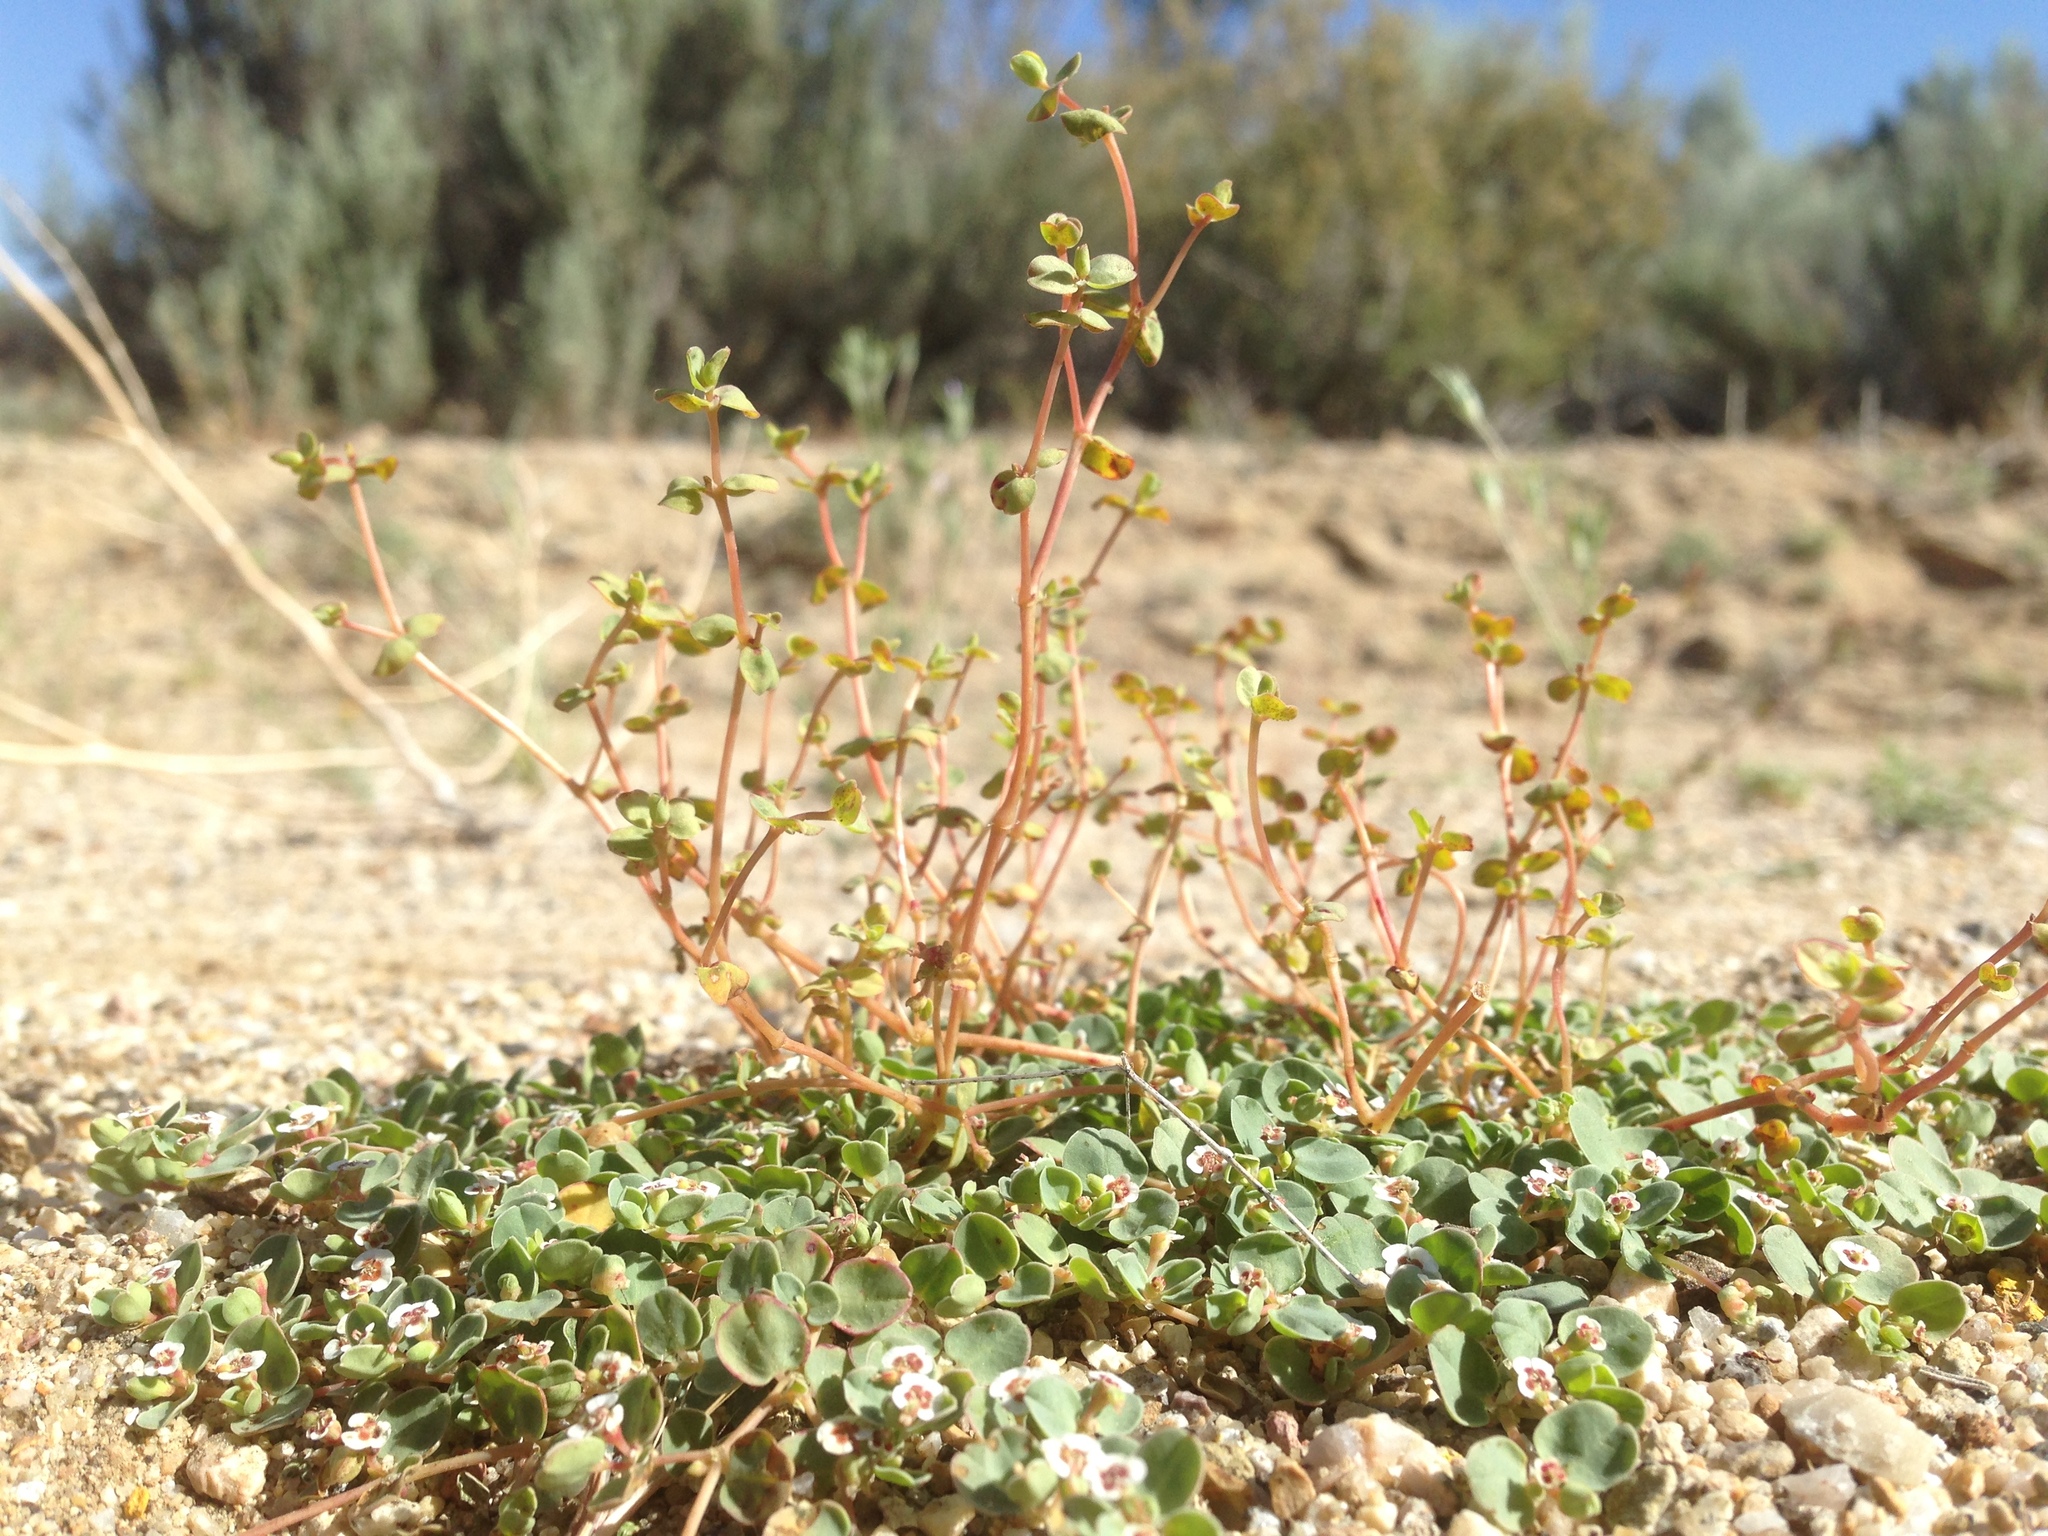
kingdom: Fungi
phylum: Basidiomycota
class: Pucciniomycetes
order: Pucciniales
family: Pucciniaceae
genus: Uromyces
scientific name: Uromyces proeminens
